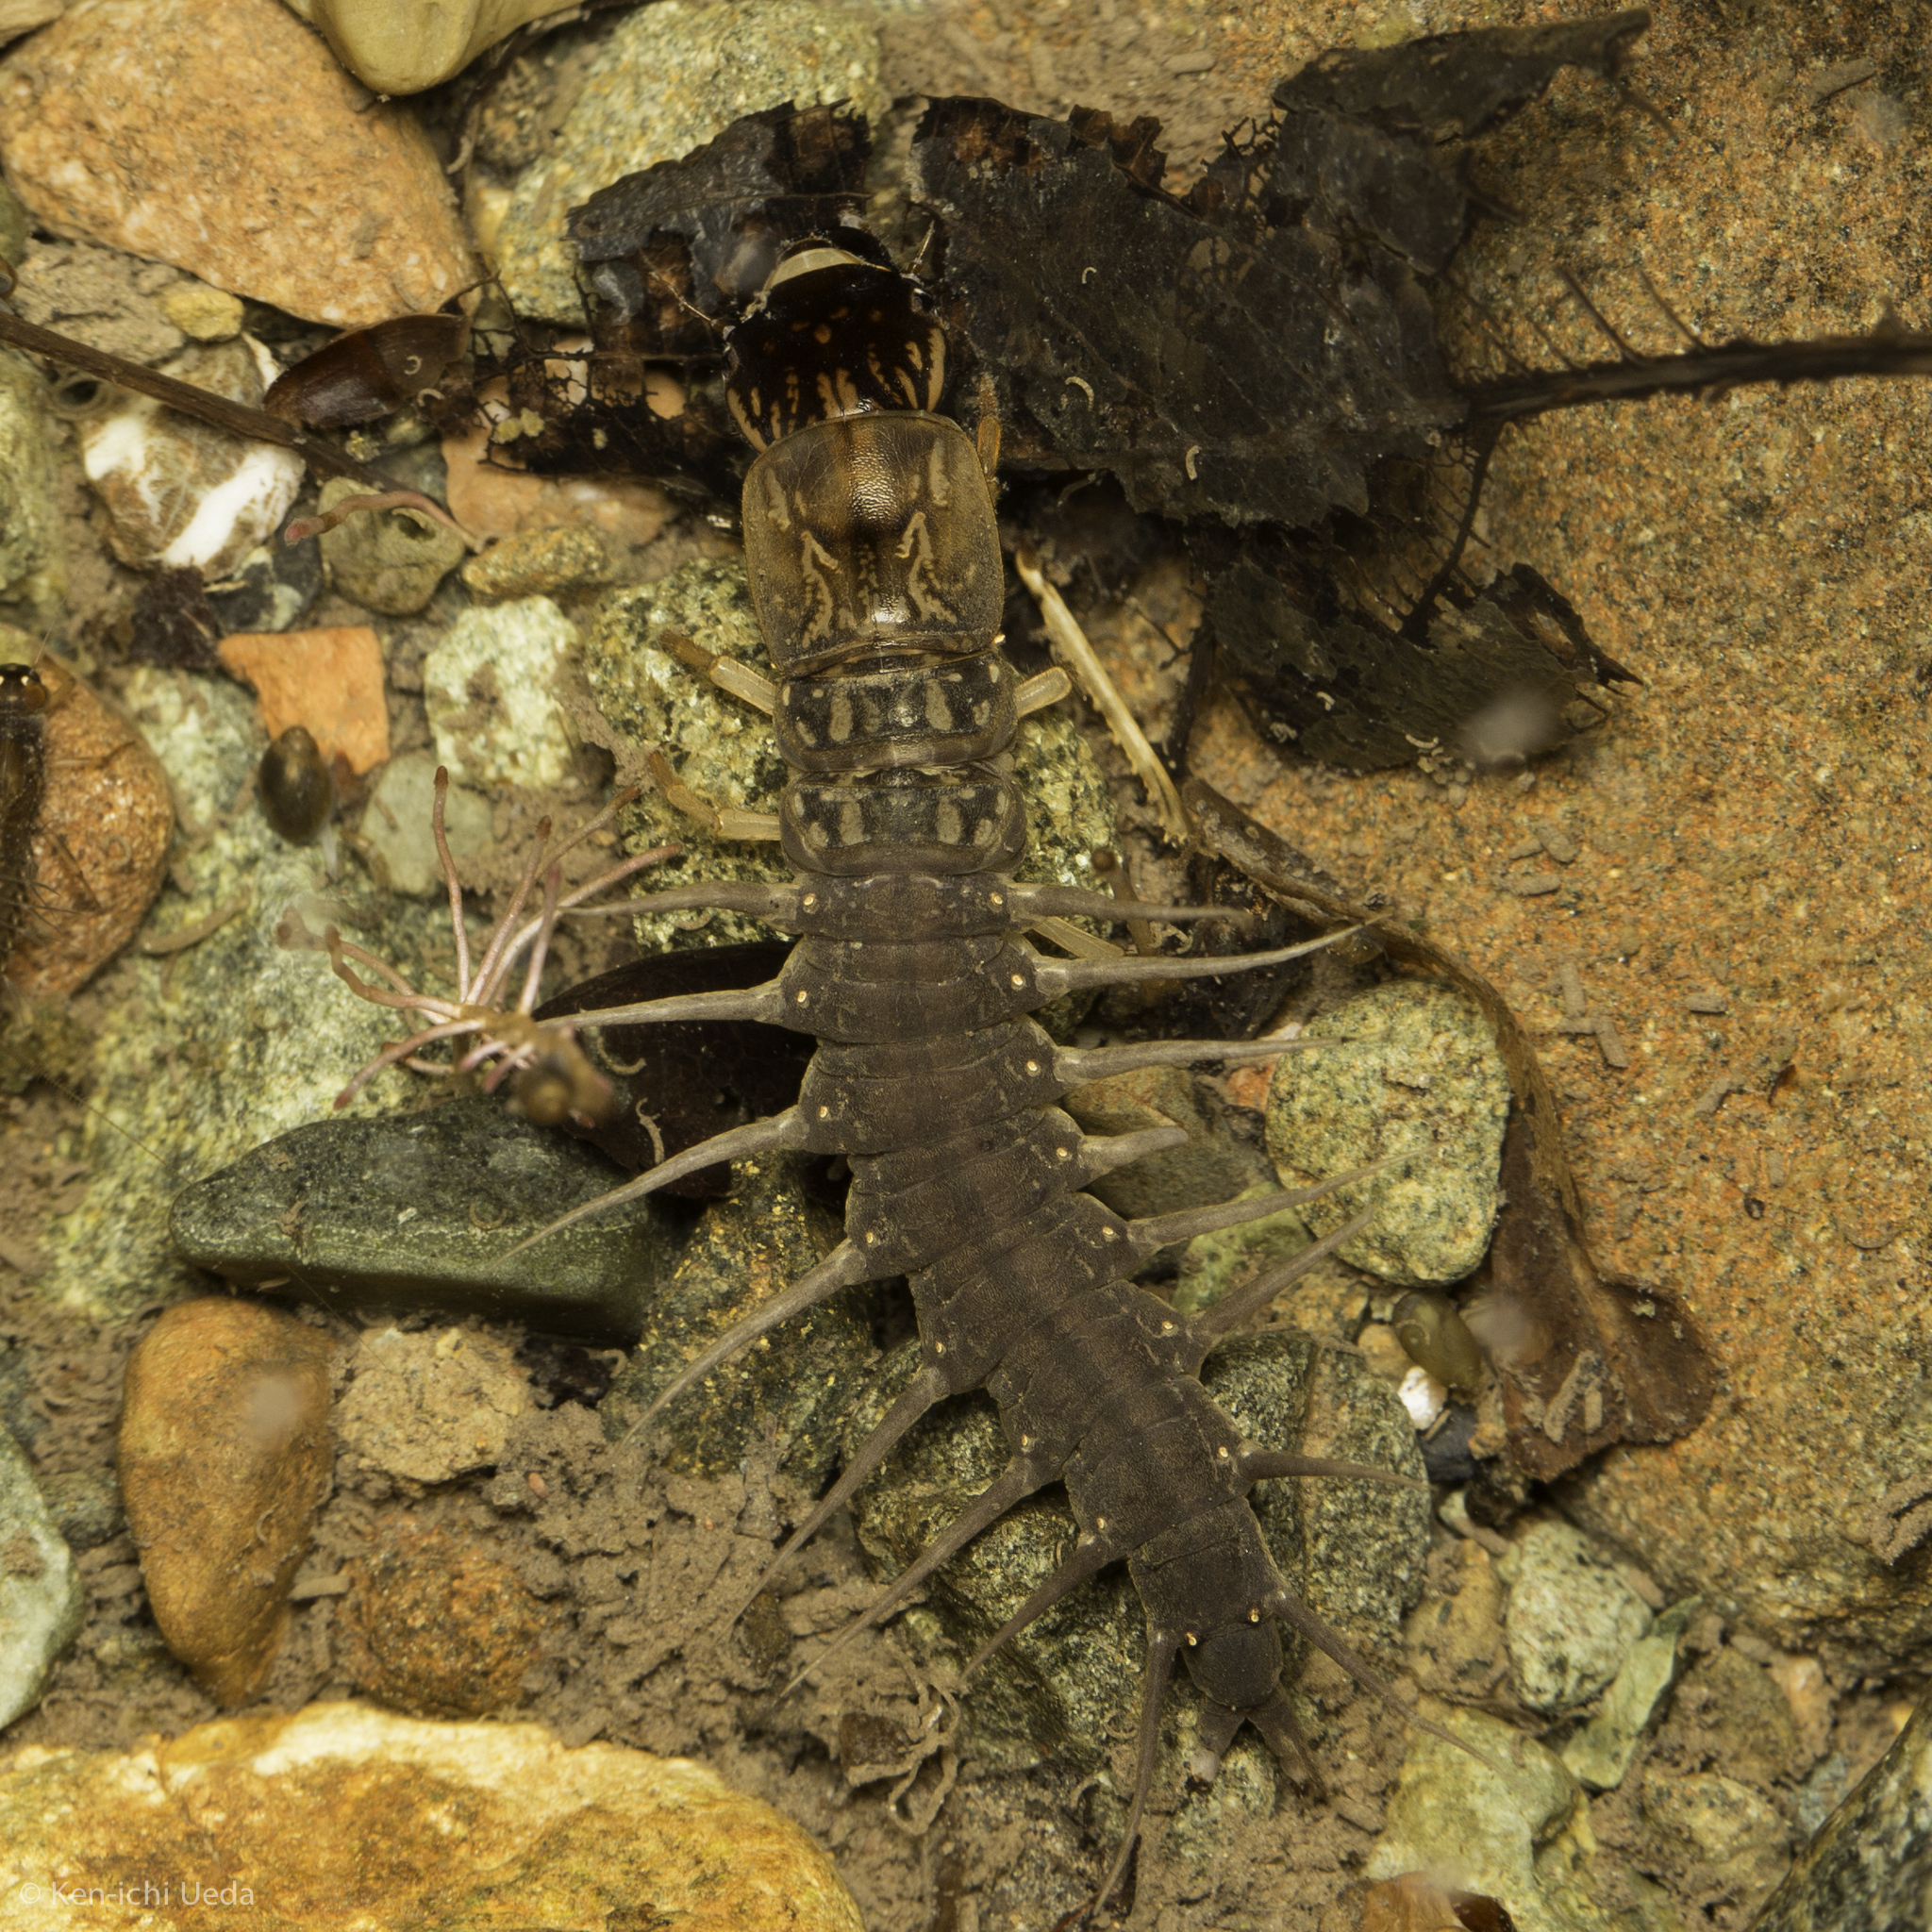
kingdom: Animalia
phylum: Arthropoda
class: Insecta
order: Megaloptera
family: Corydalidae
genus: Neohermes
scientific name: Neohermes filicornis
